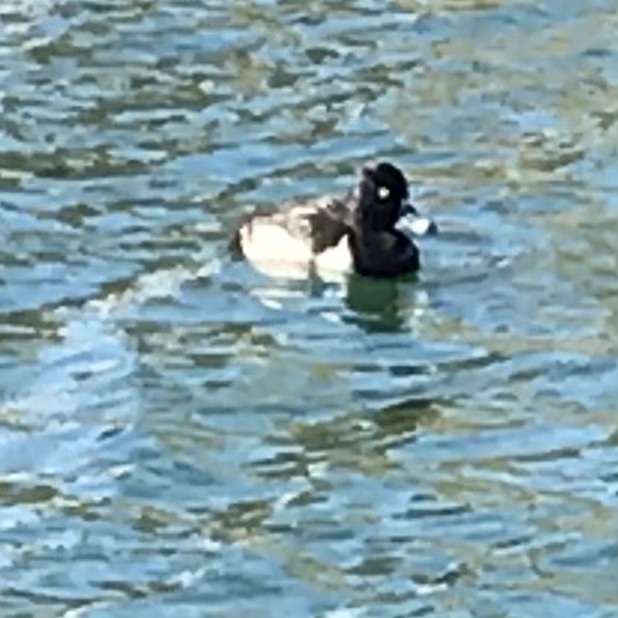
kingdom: Animalia
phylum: Chordata
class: Aves
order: Anseriformes
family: Anatidae
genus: Aythya
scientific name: Aythya collaris
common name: Ring-necked duck
